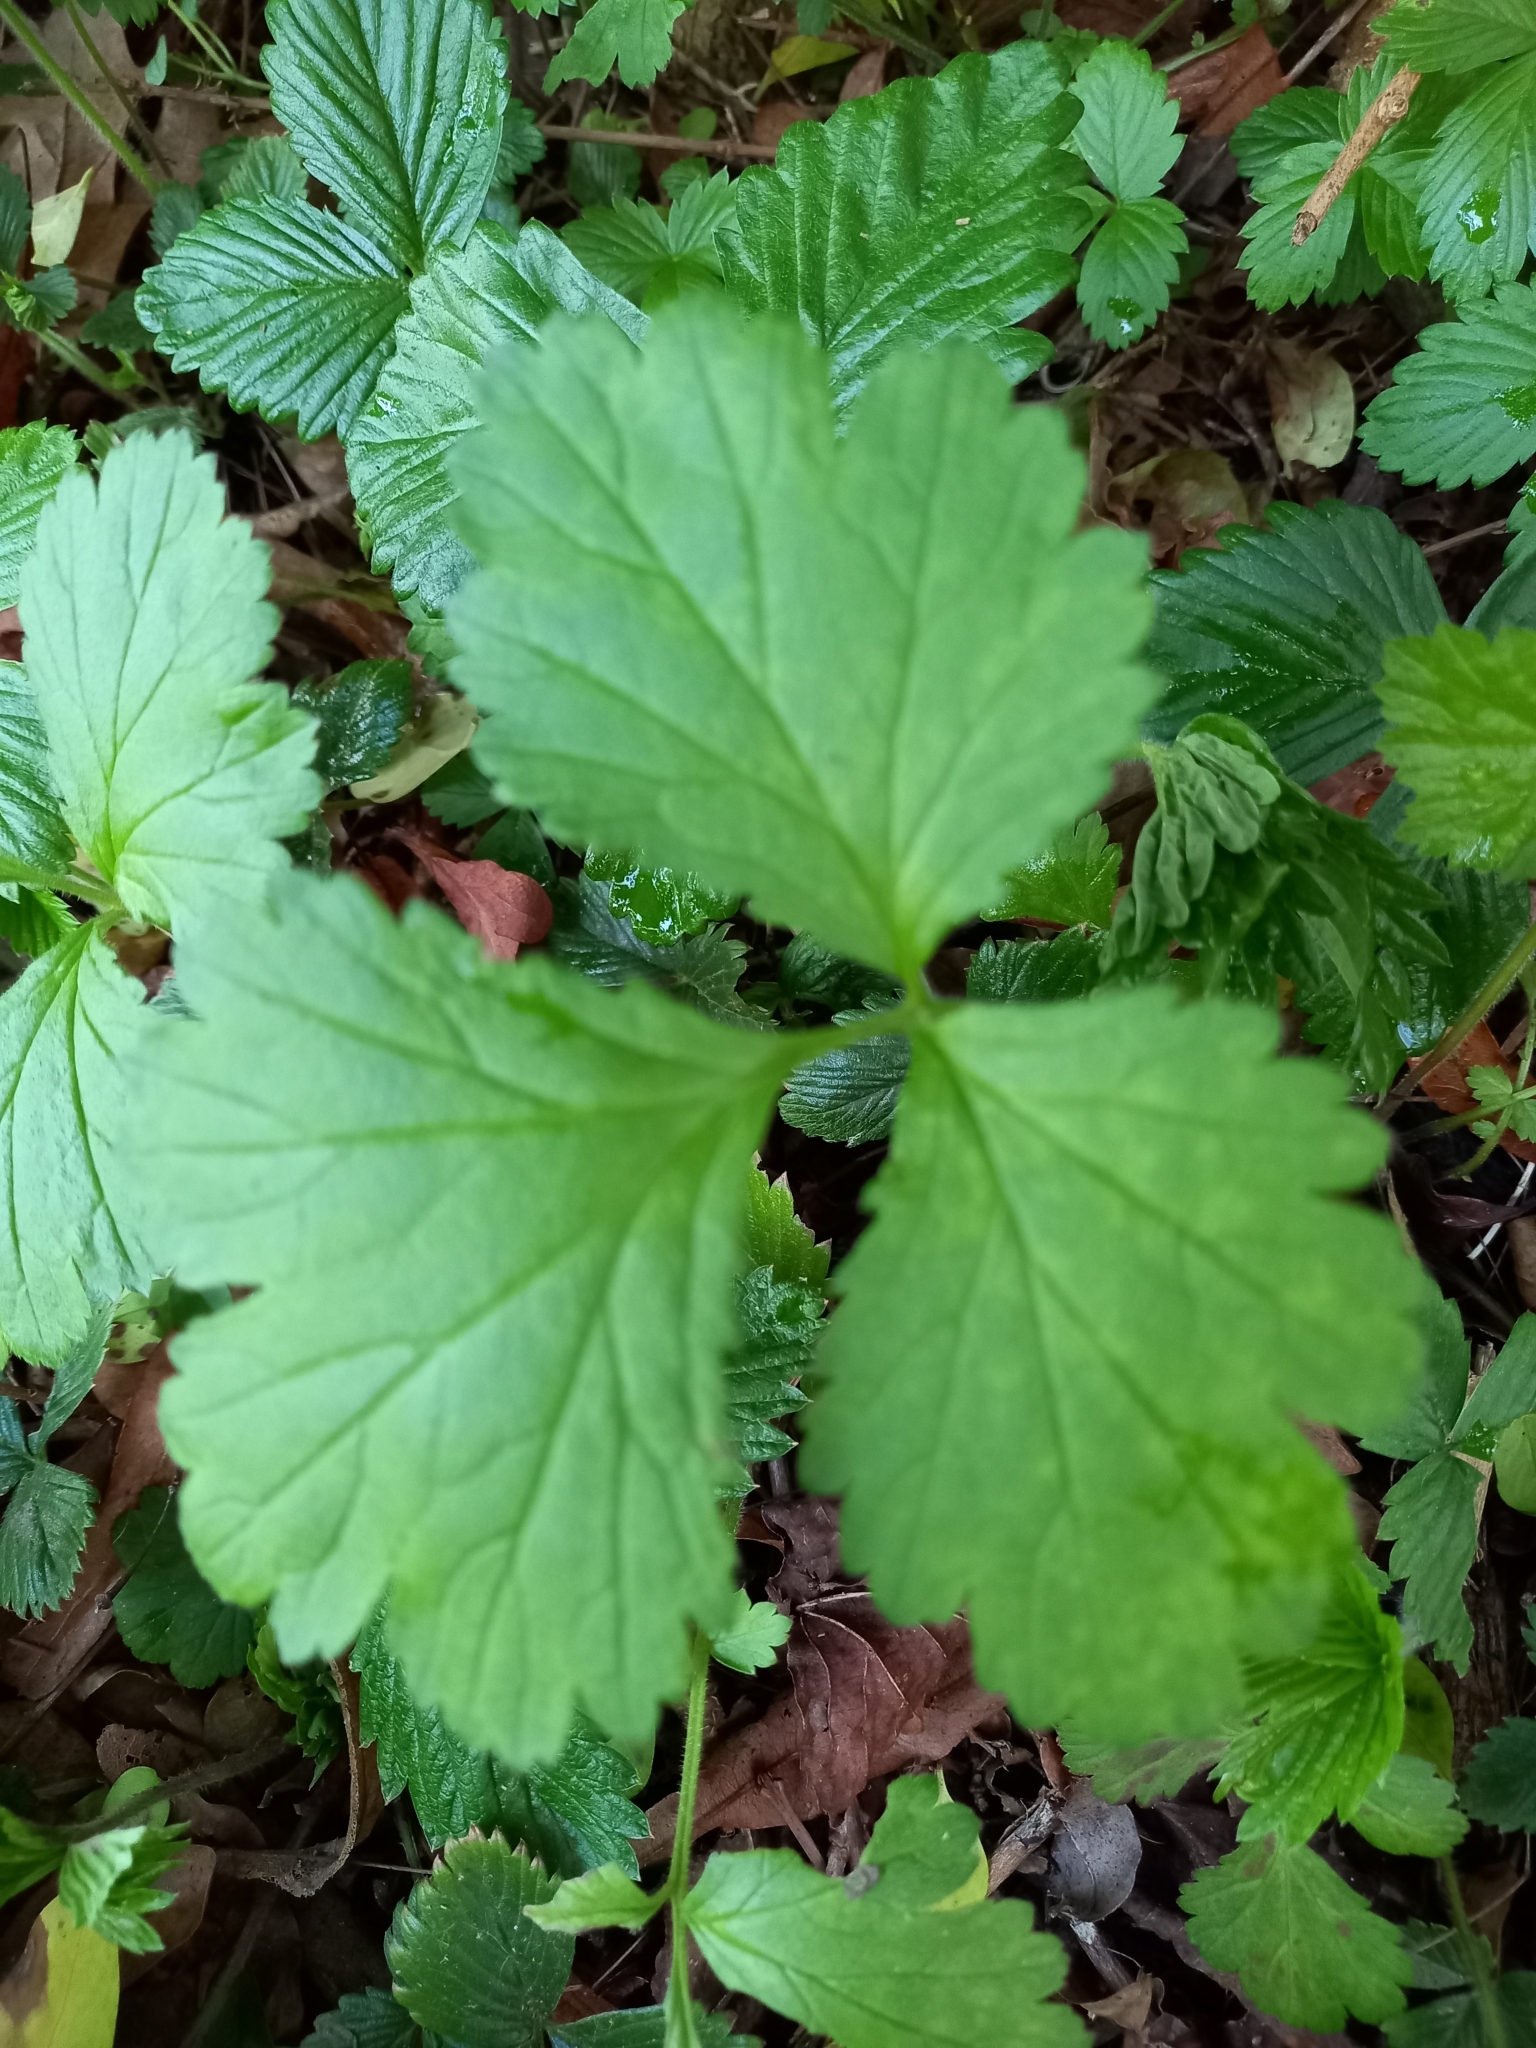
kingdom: Plantae
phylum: Tracheophyta
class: Magnoliopsida
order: Rosales
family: Rosaceae
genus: Geum
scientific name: Geum urbanum
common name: Wood avens
